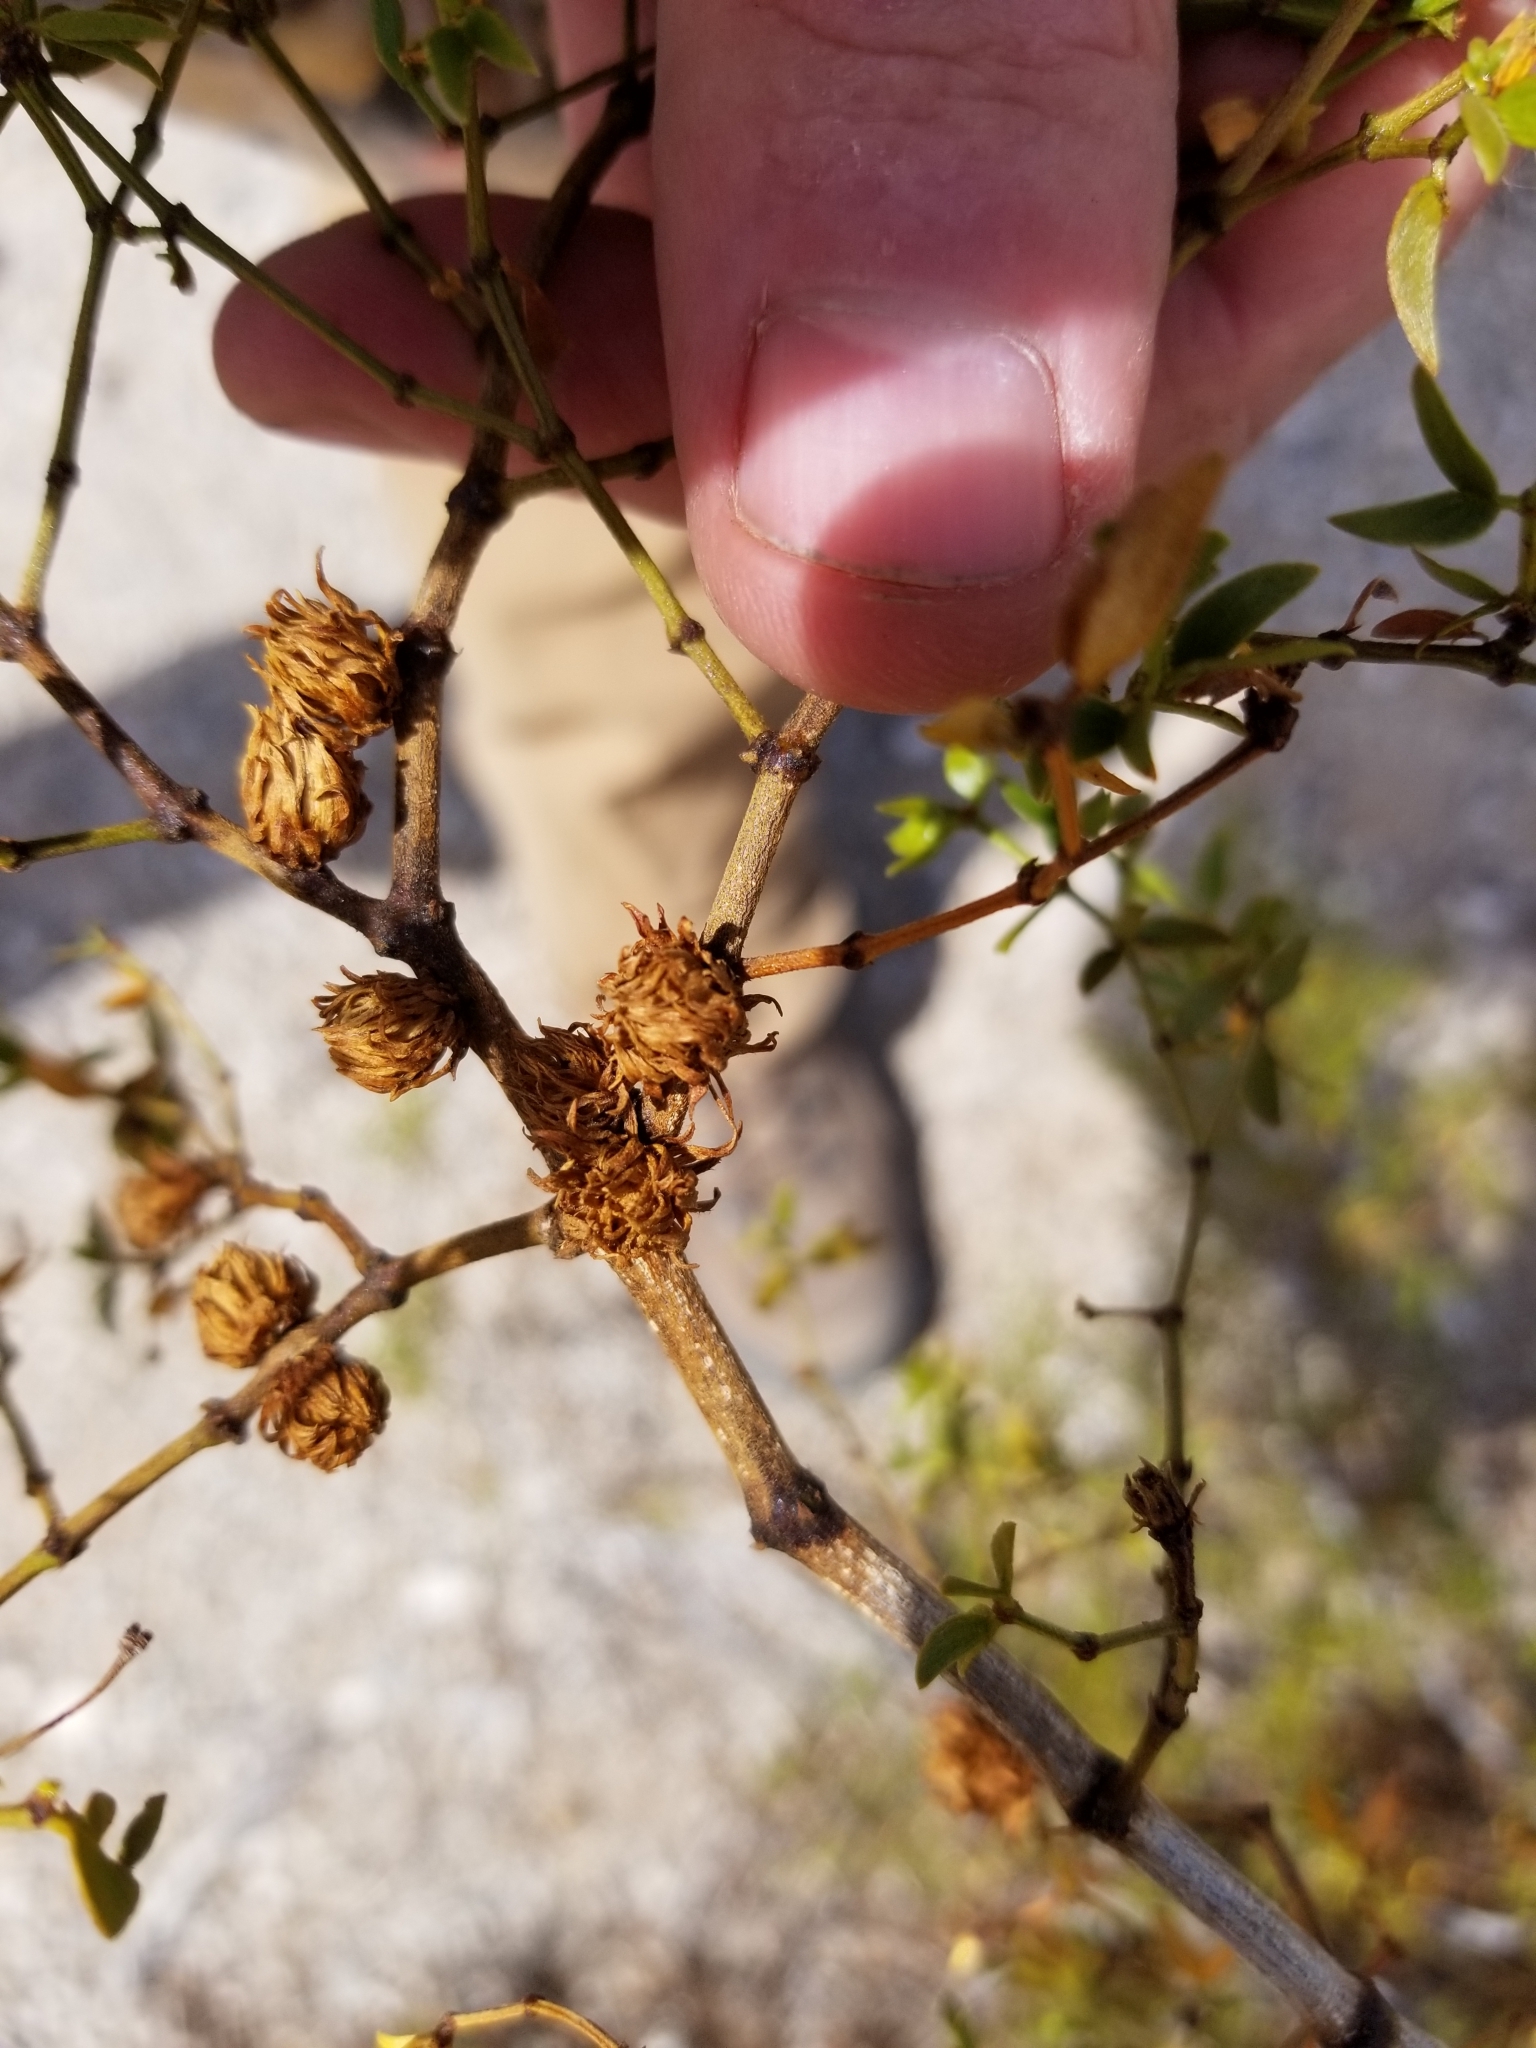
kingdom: Animalia
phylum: Arthropoda
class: Insecta
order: Diptera
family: Cecidomyiidae
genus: Asphondylia
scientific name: Asphondylia foliosa
